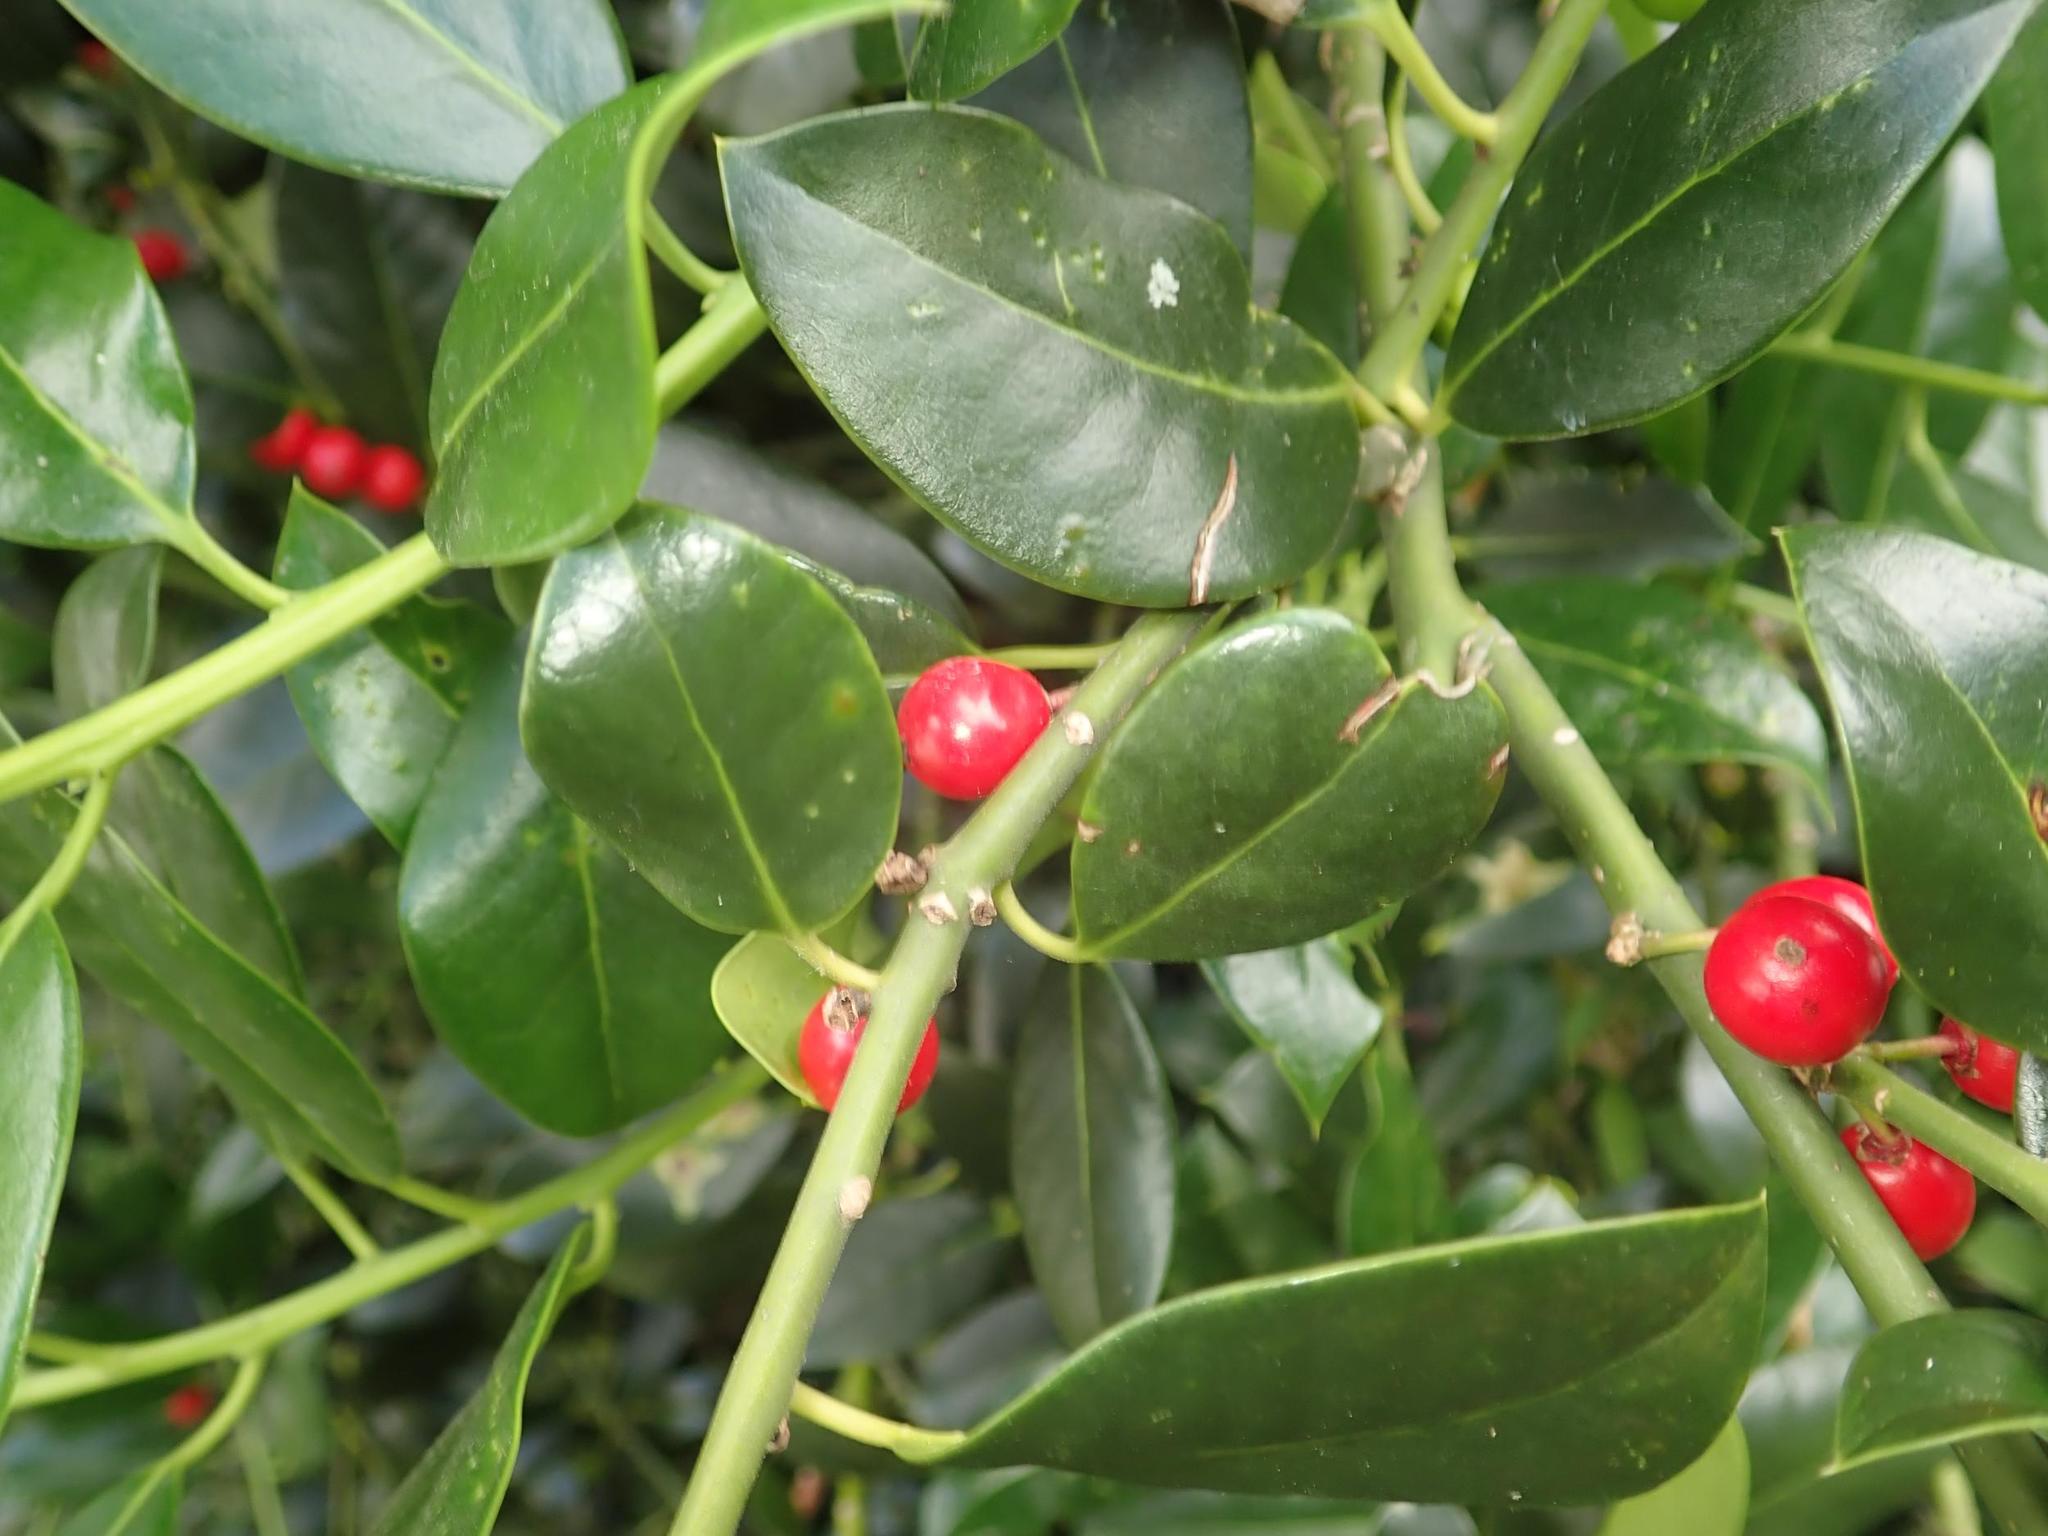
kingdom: Plantae
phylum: Tracheophyta
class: Magnoliopsida
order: Aquifoliales
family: Aquifoliaceae
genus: Ilex
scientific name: Ilex aquifolium
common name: English holly
